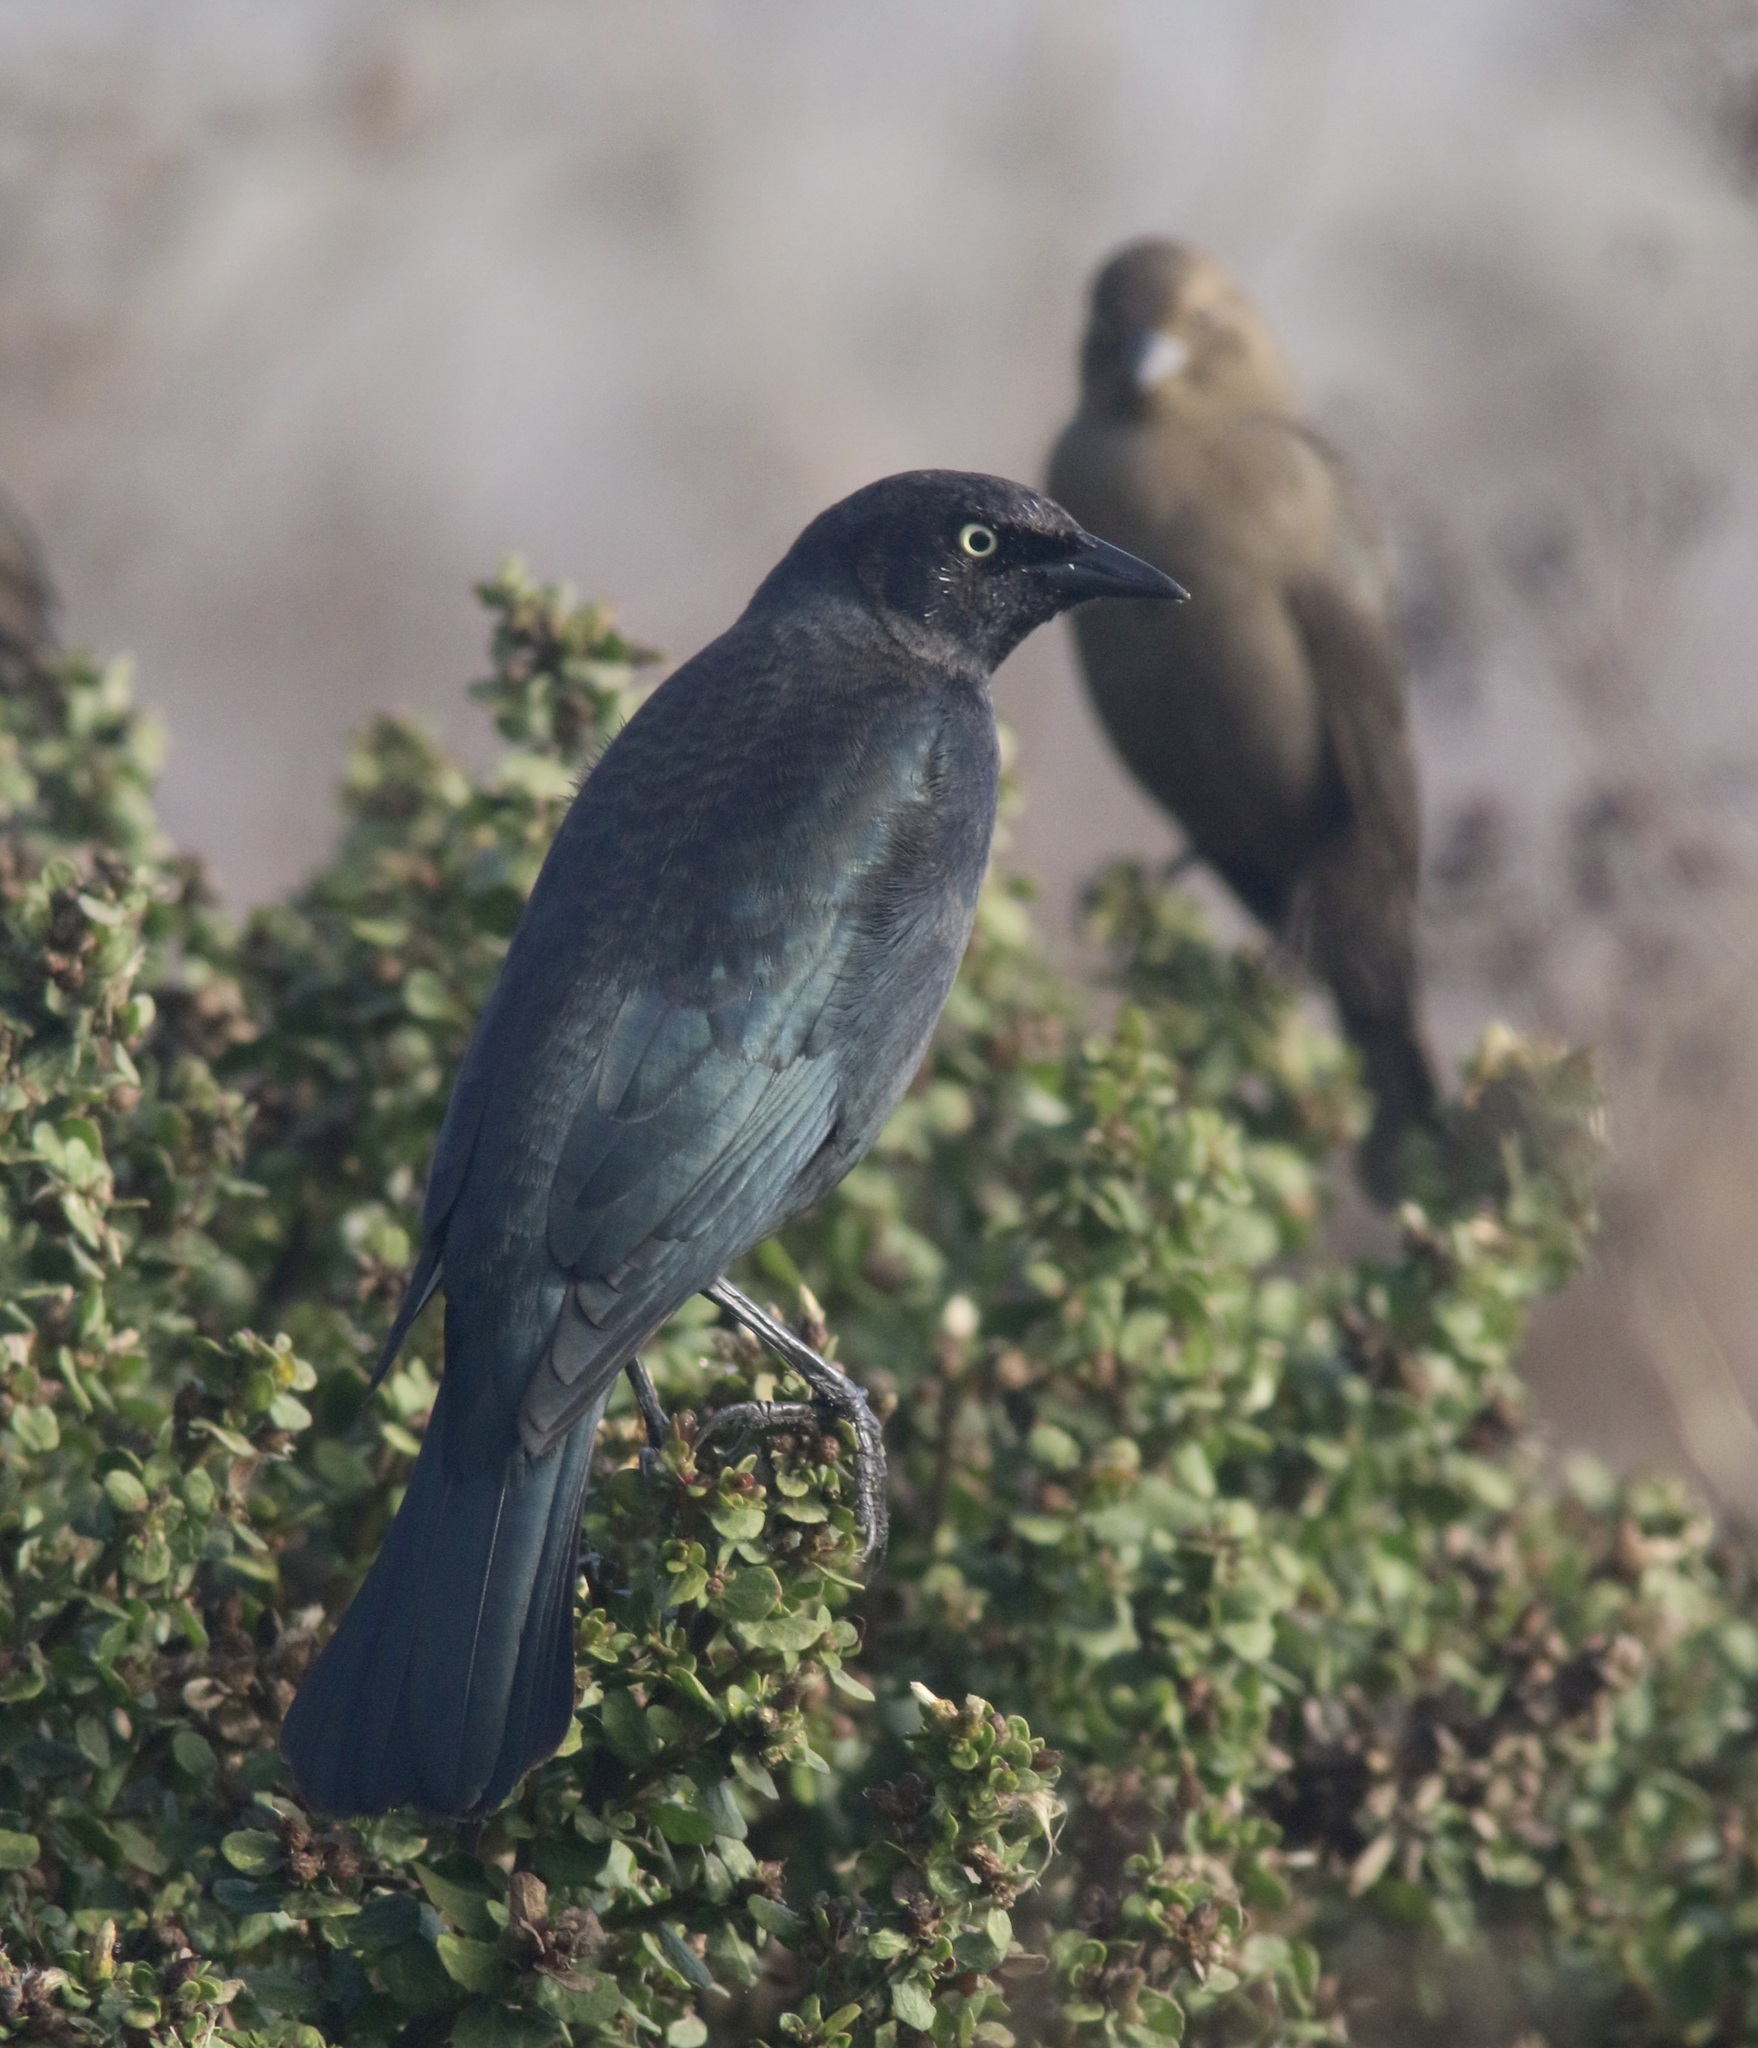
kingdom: Animalia
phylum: Chordata
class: Aves
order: Passeriformes
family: Icteridae
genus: Euphagus
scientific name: Euphagus cyanocephalus
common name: Brewer's blackbird
